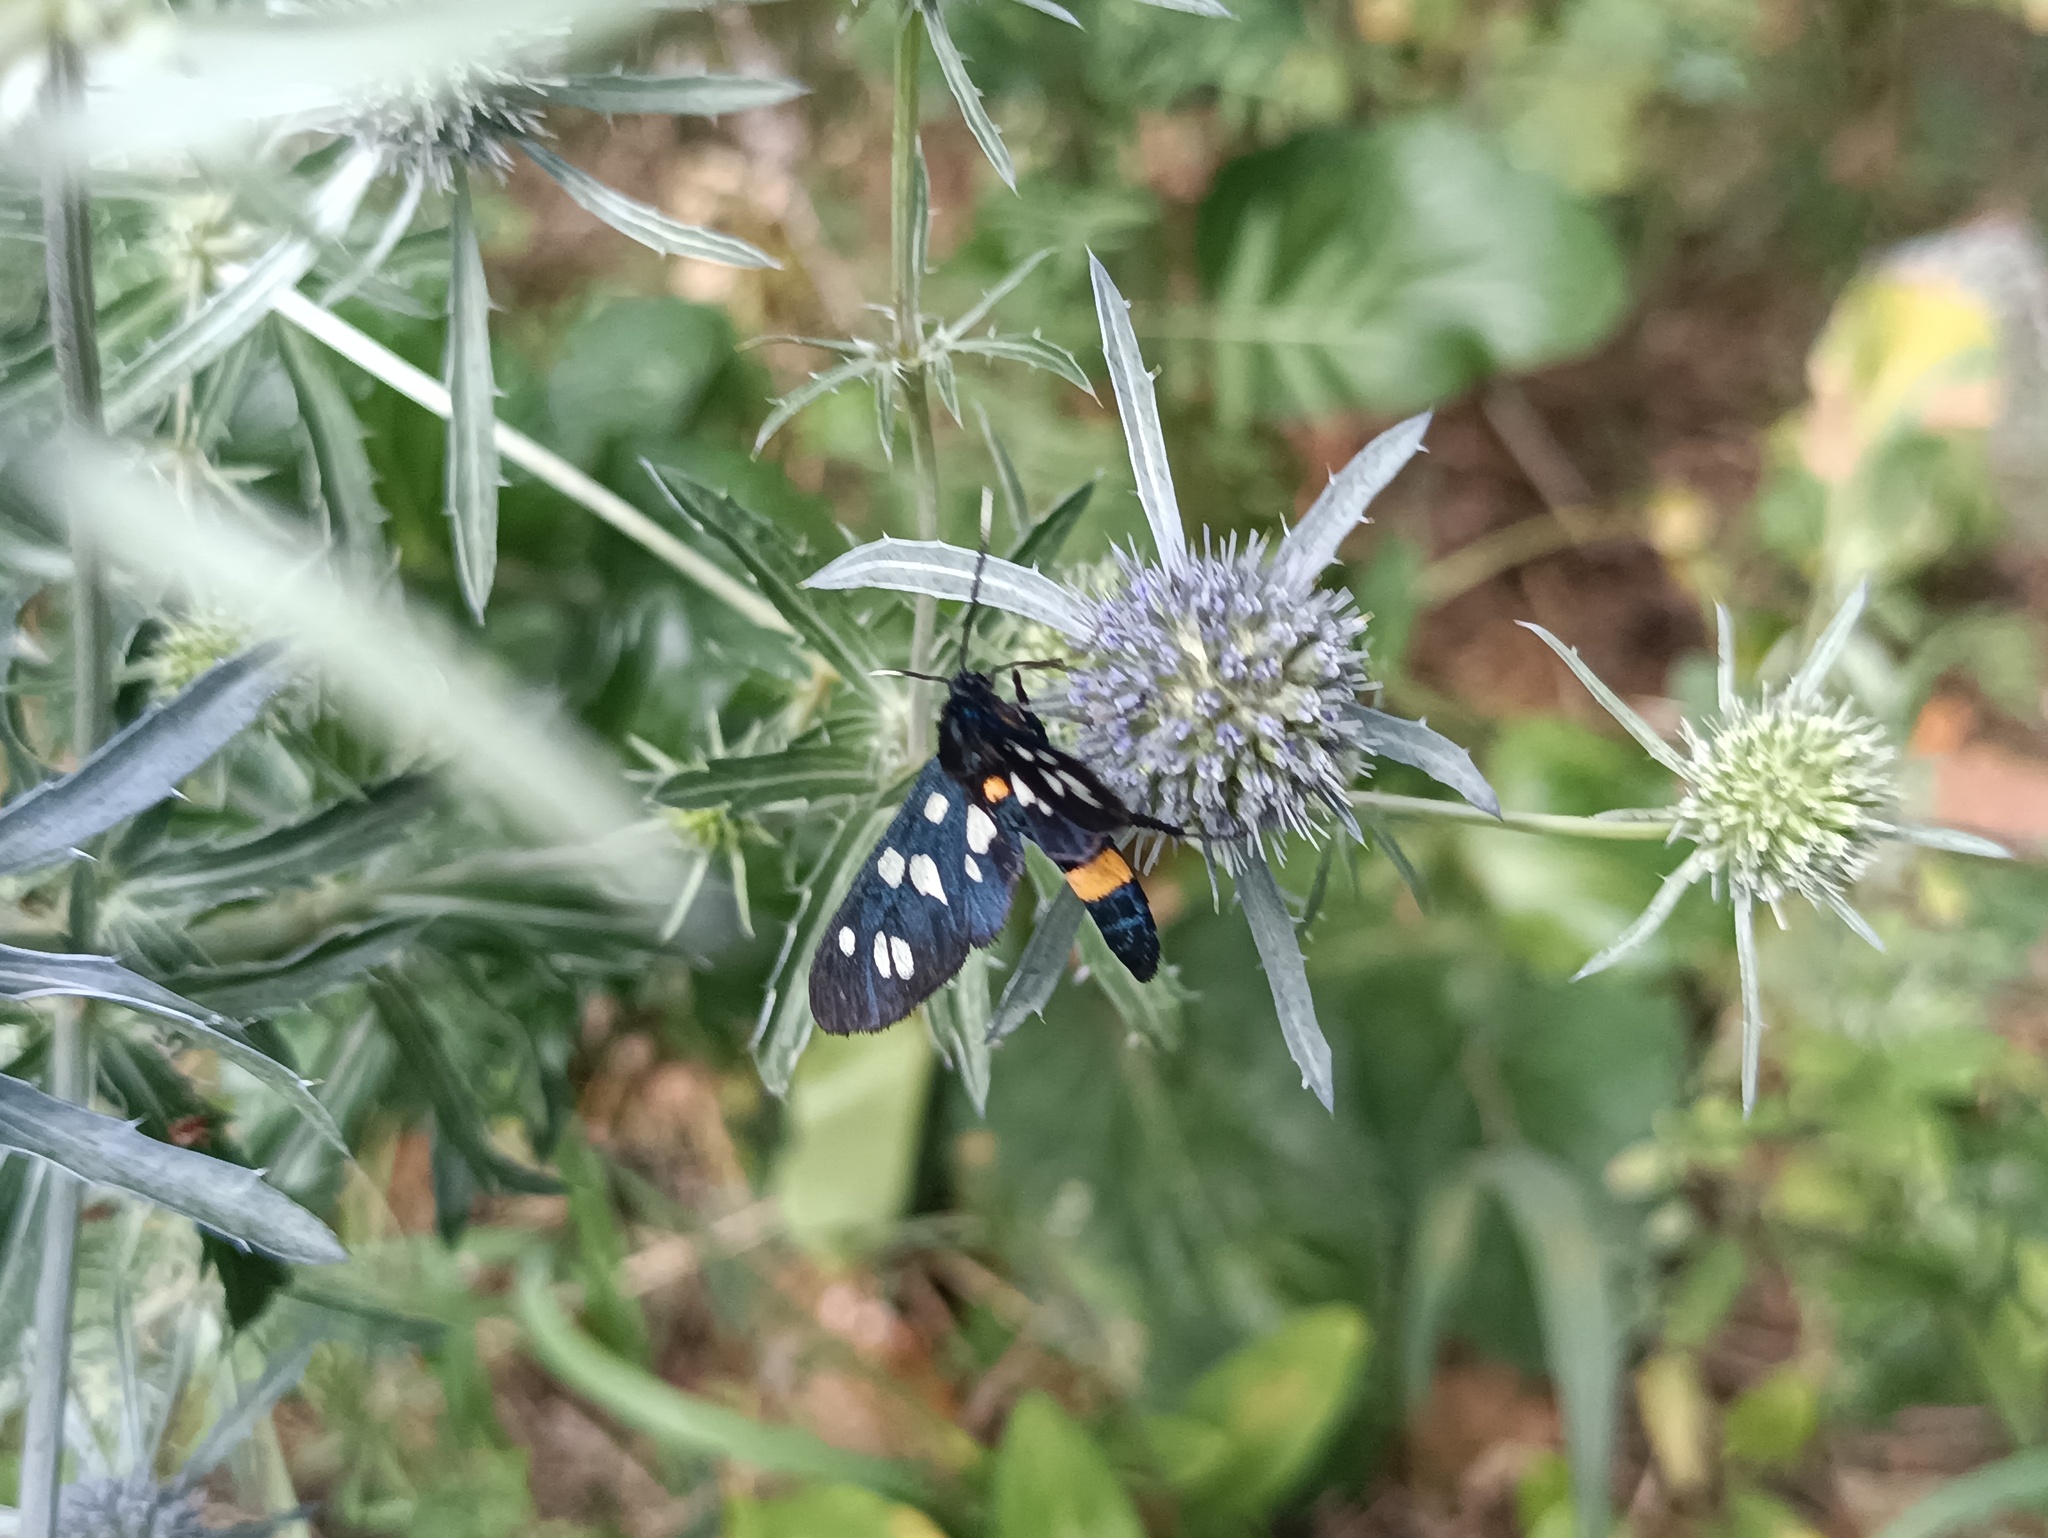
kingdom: Animalia
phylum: Arthropoda
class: Insecta
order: Lepidoptera
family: Erebidae
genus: Amata
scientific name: Amata nigricornis
